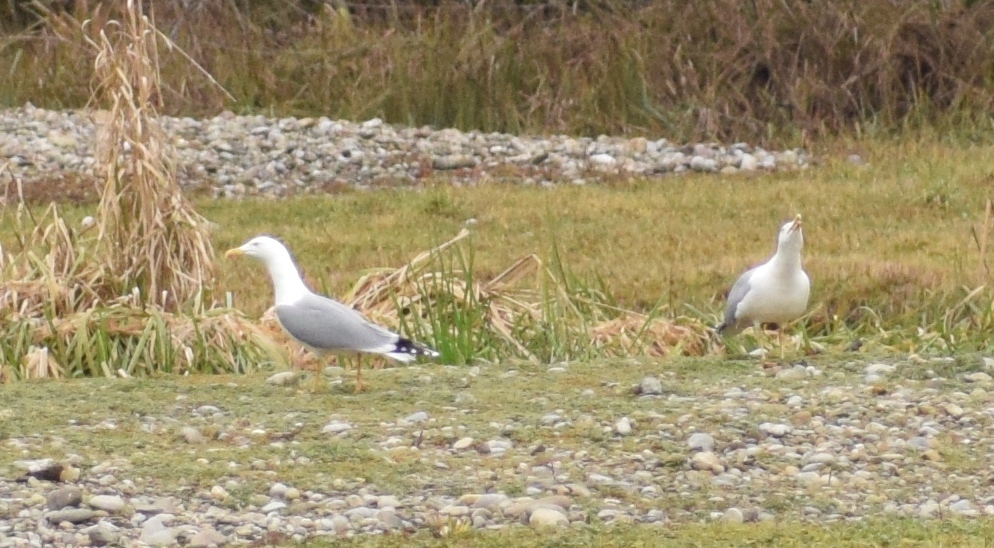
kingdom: Animalia
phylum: Chordata
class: Aves
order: Charadriiformes
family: Laridae
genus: Larus
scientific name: Larus michahellis
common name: Yellow-legged gull
